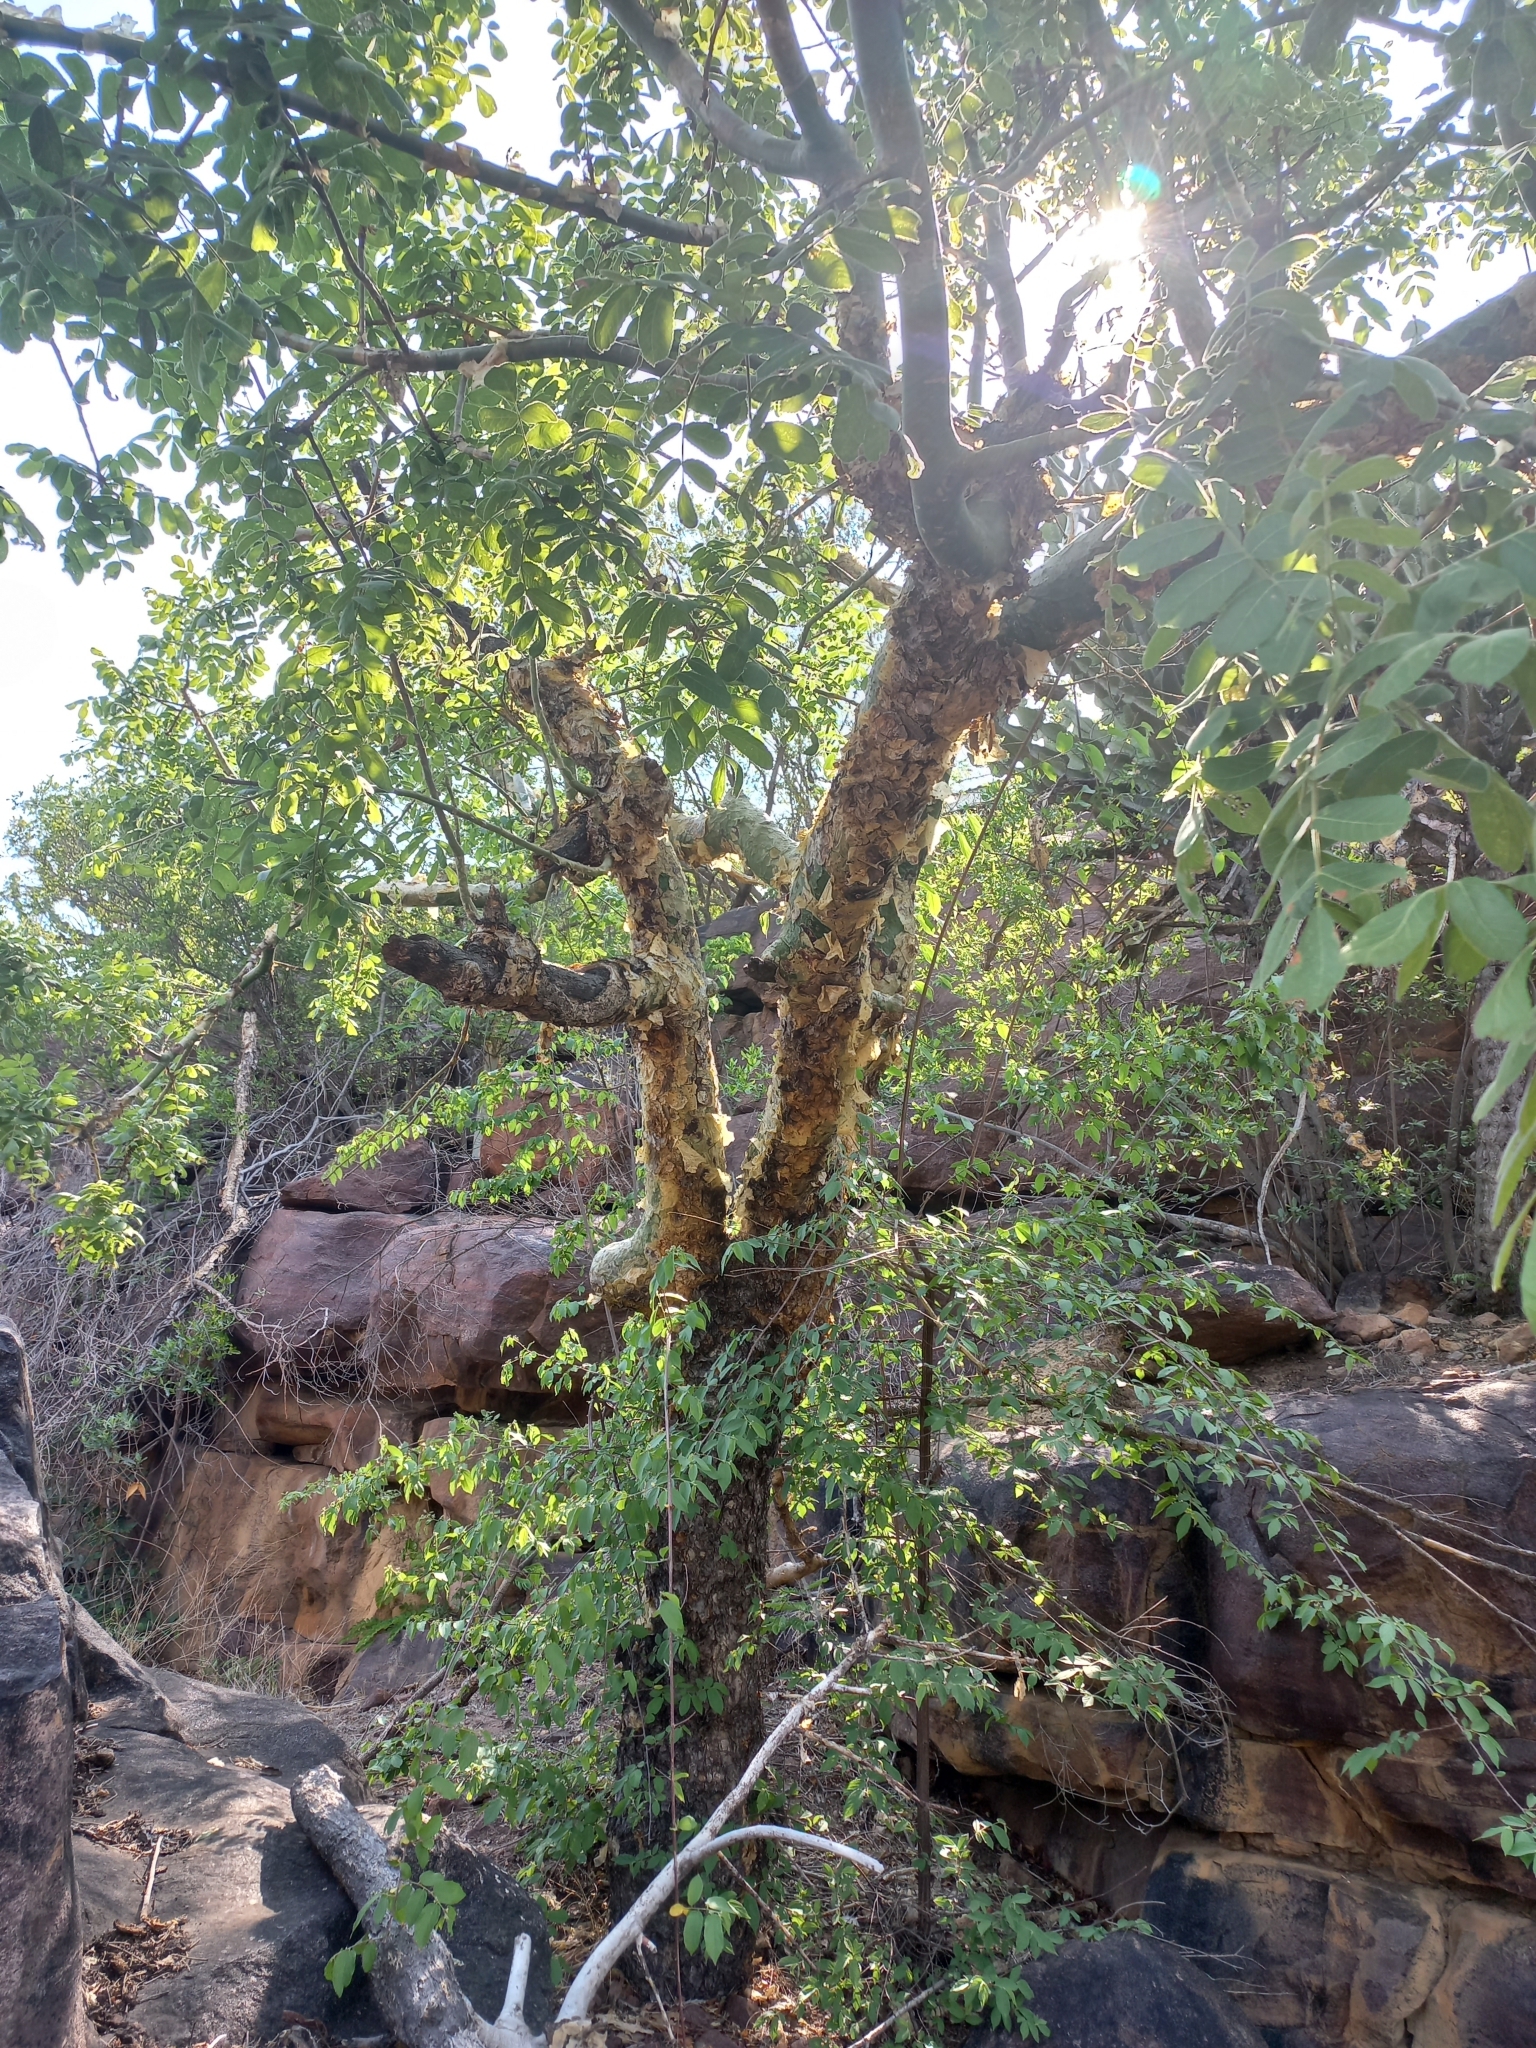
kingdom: Plantae
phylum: Tracheophyta
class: Magnoliopsida
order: Sapindales
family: Burseraceae
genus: Commiphora
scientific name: Commiphora marlothii
